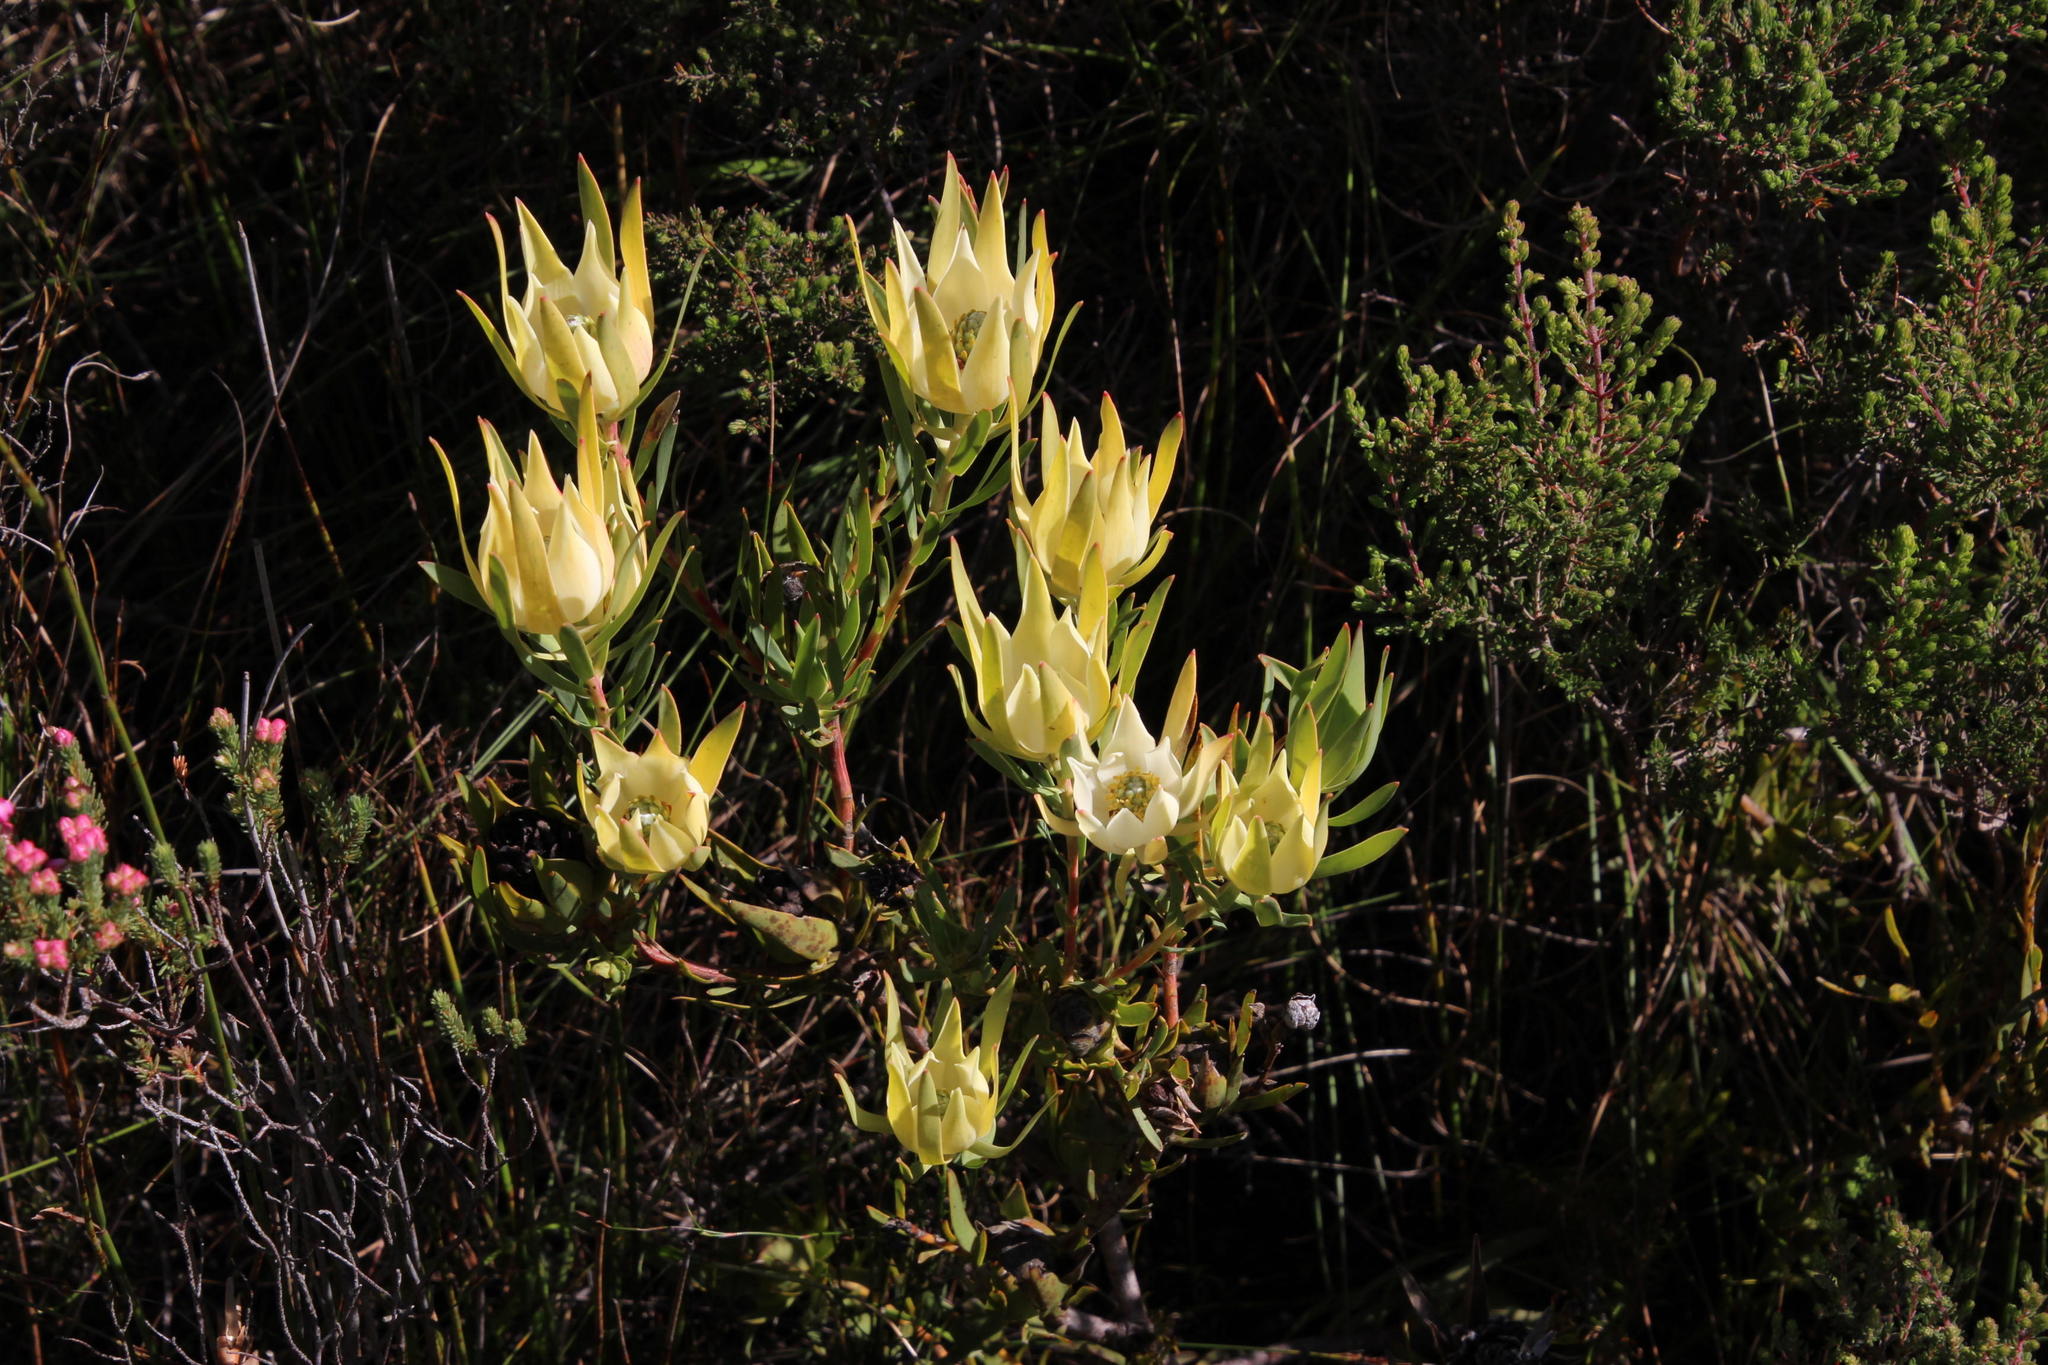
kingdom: Plantae
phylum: Tracheophyta
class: Magnoliopsida
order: Proteales
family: Proteaceae
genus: Leucadendron
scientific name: Leucadendron salignum
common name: Common sunshine conebush
